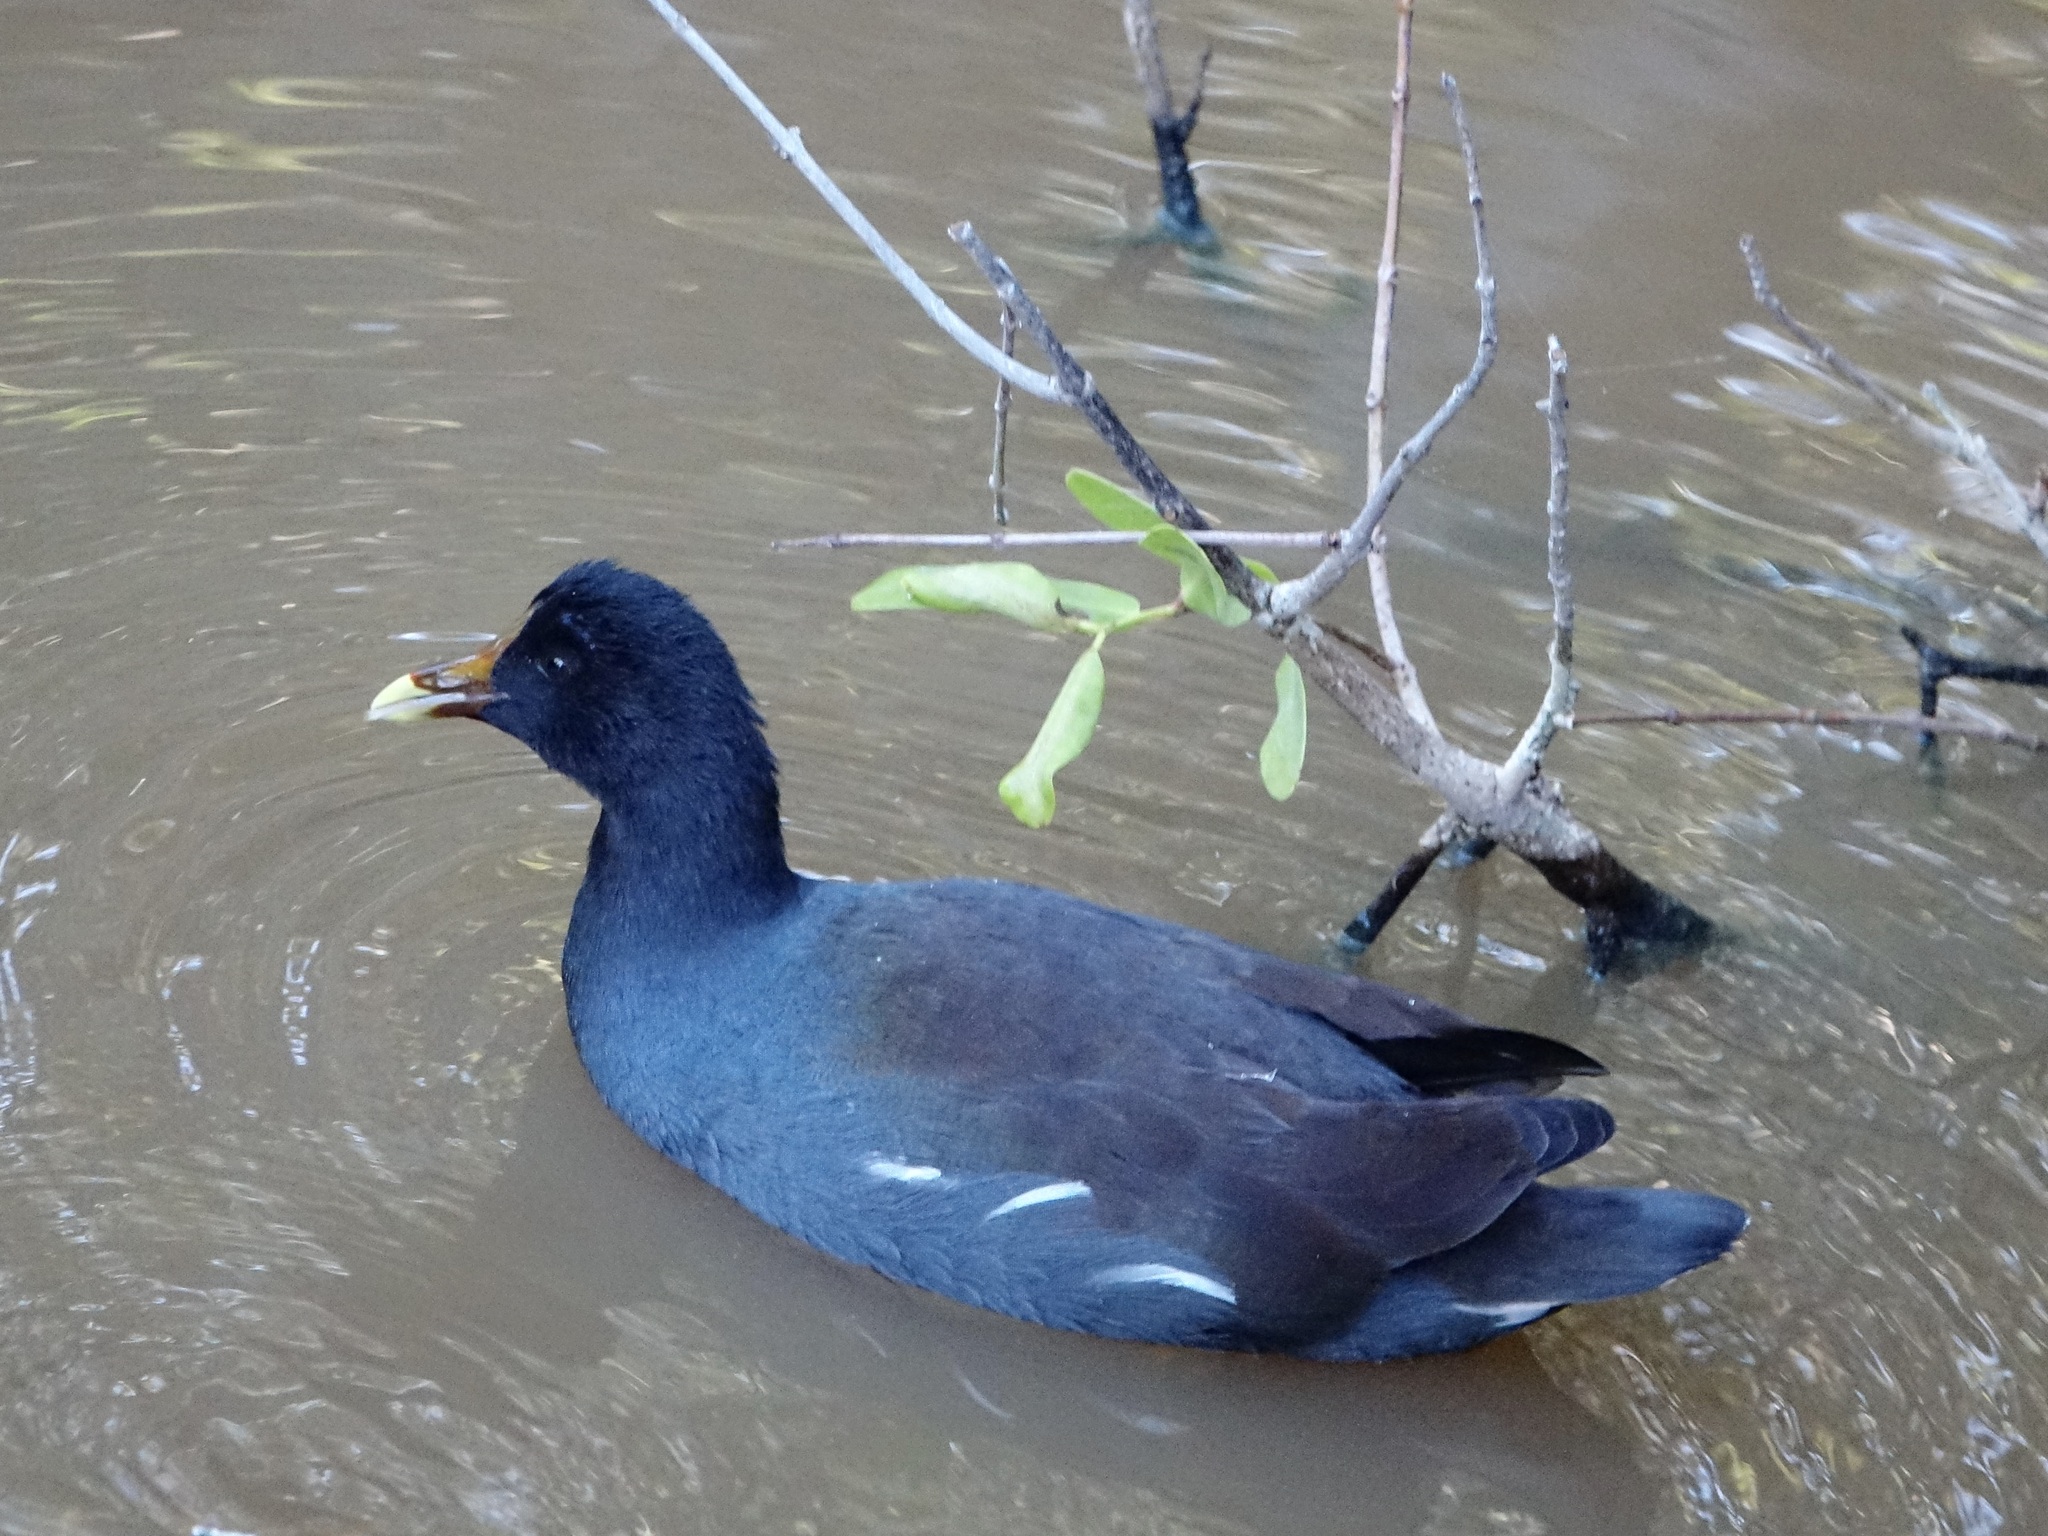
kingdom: Animalia
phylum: Chordata
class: Aves
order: Gruiformes
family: Rallidae
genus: Gallinula
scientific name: Gallinula chloropus
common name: Common moorhen
